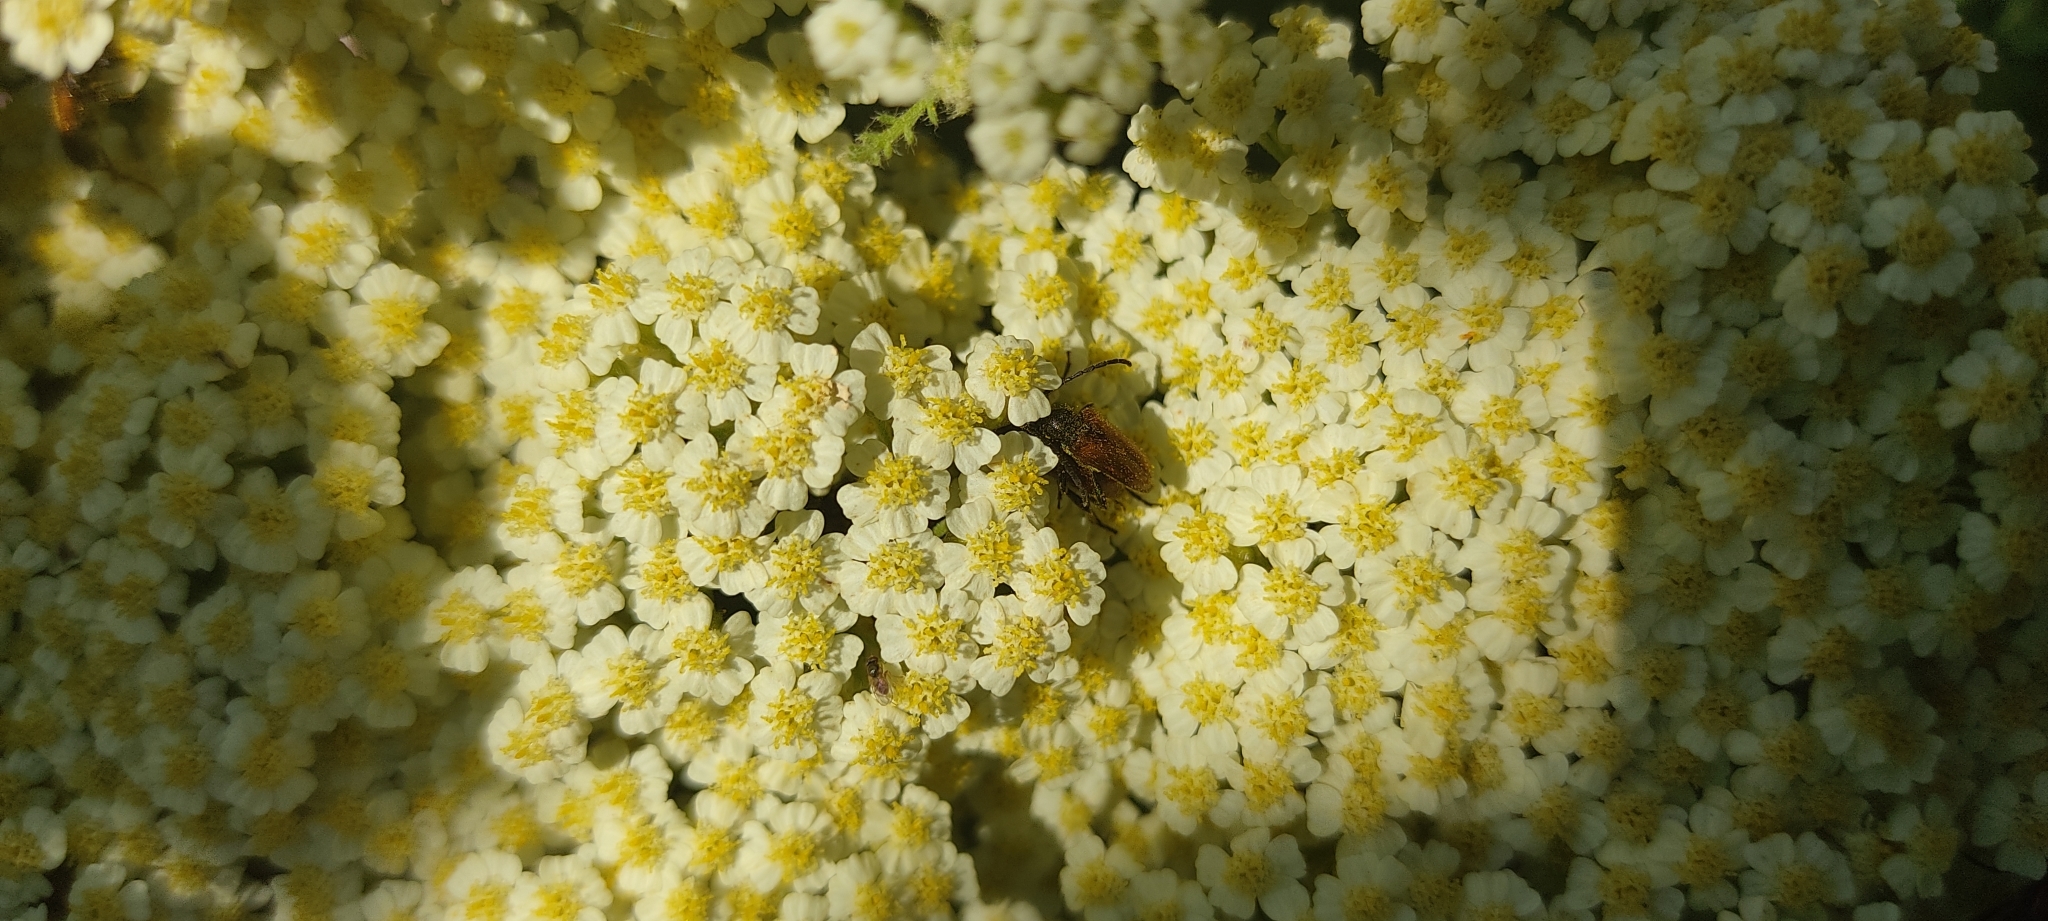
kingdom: Animalia
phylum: Arthropoda
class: Insecta
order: Coleoptera
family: Cerambycidae
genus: Pseudovadonia
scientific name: Pseudovadonia livida
